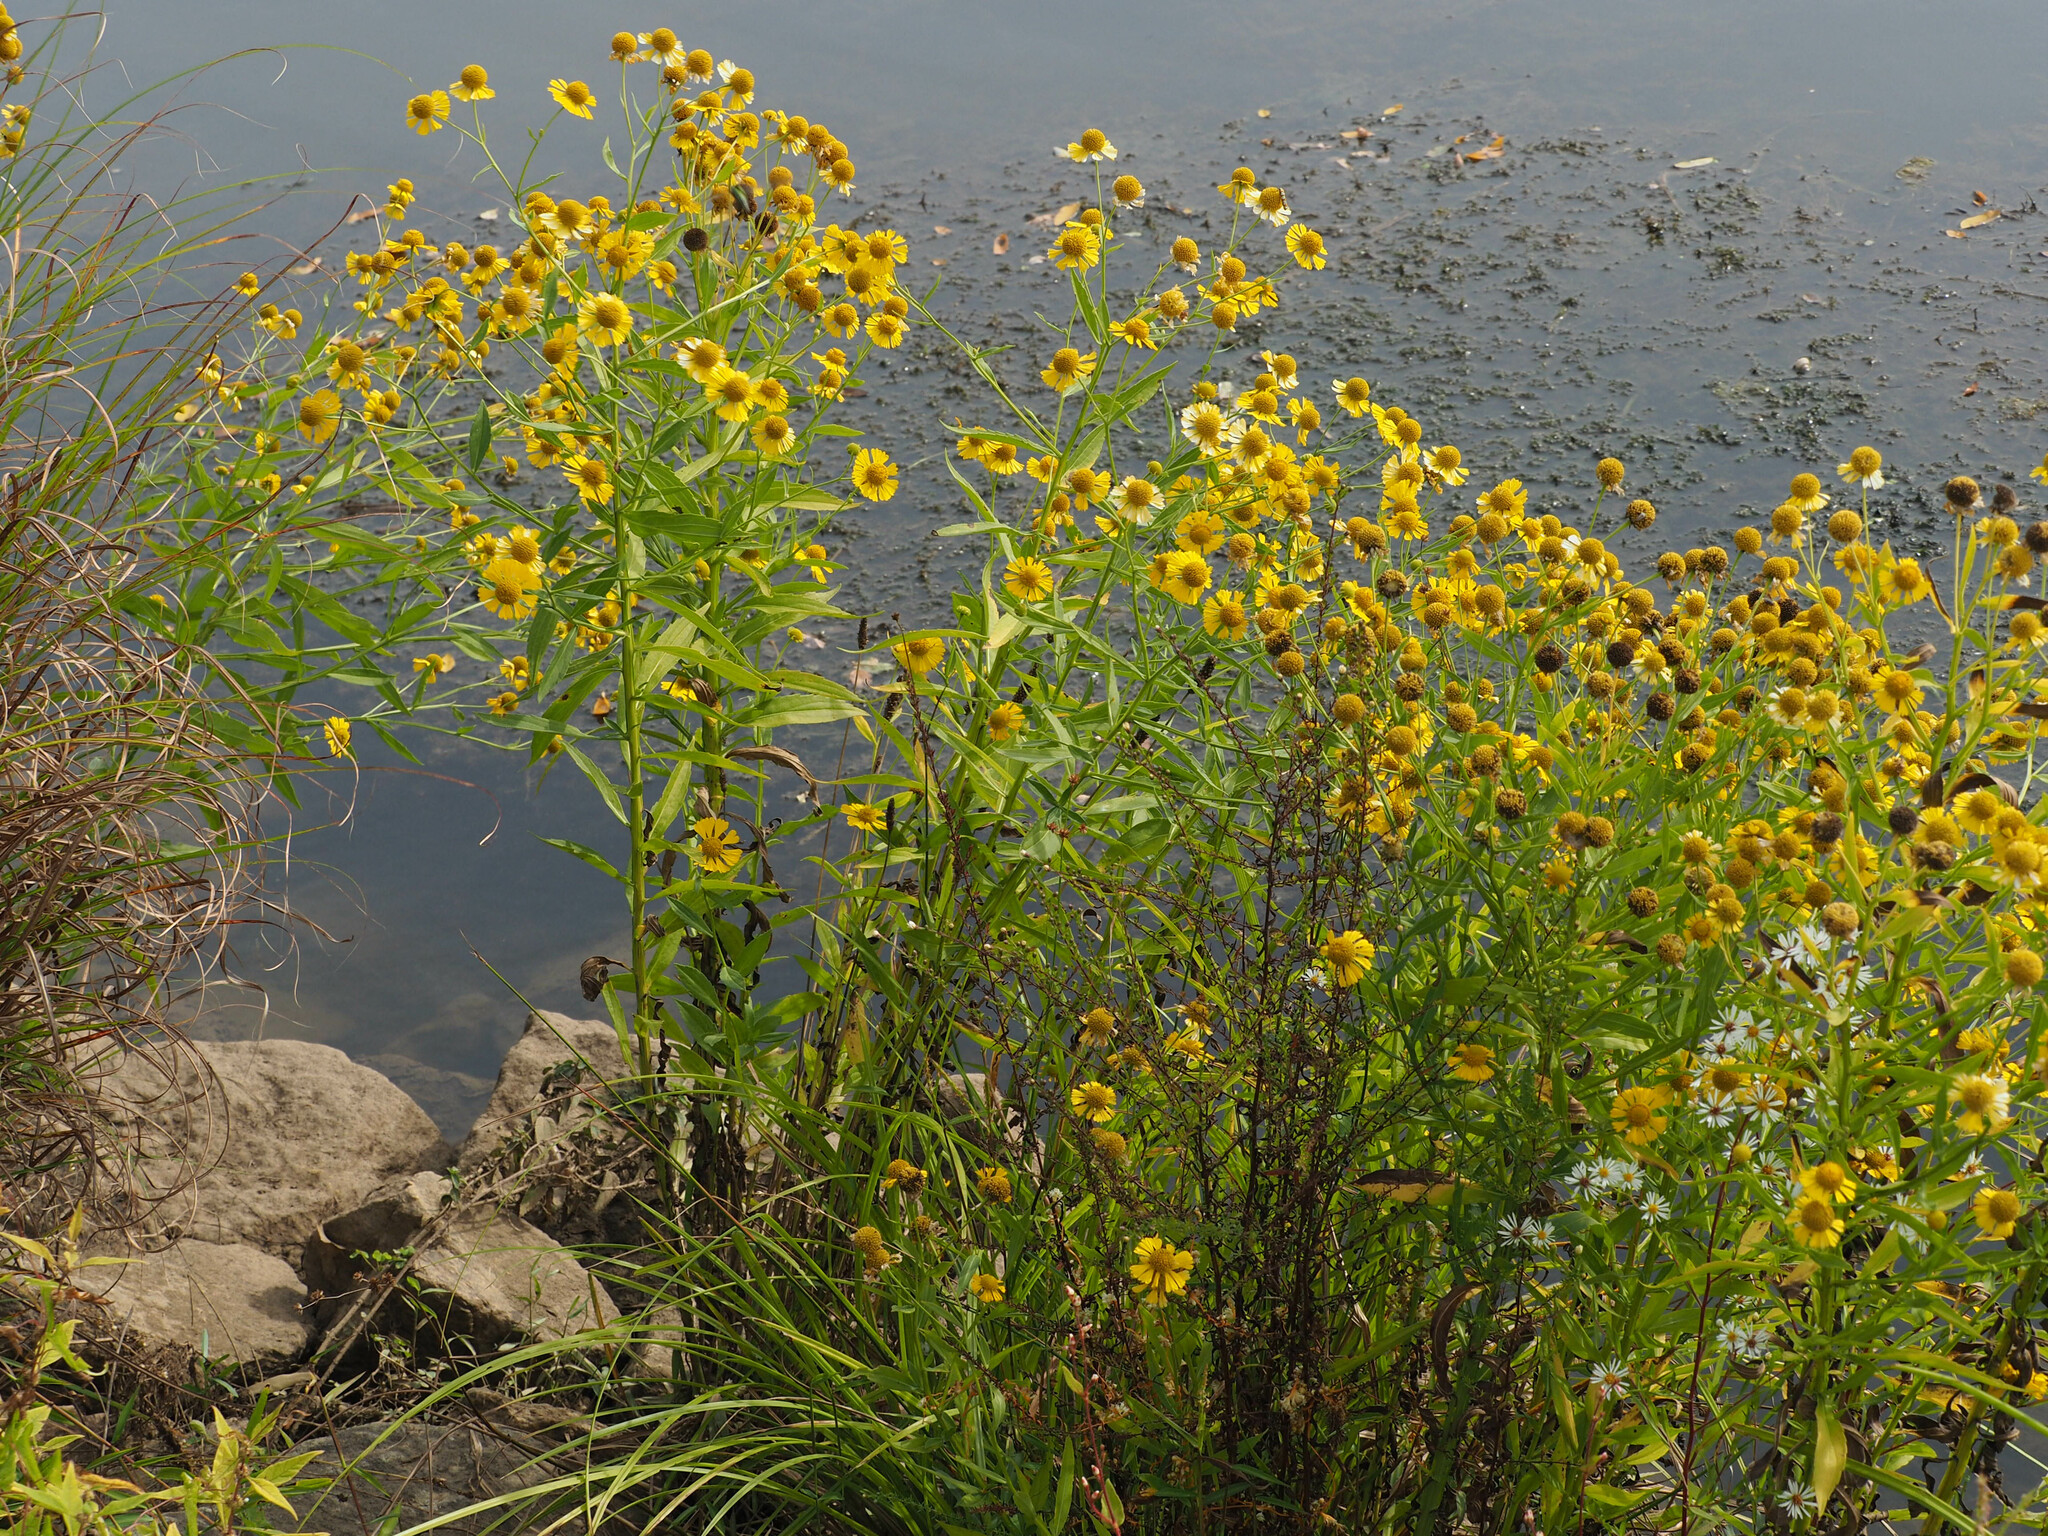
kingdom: Plantae
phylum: Tracheophyta
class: Magnoliopsida
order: Asterales
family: Asteraceae
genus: Helenium
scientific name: Helenium autumnale
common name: Sneezeweed
